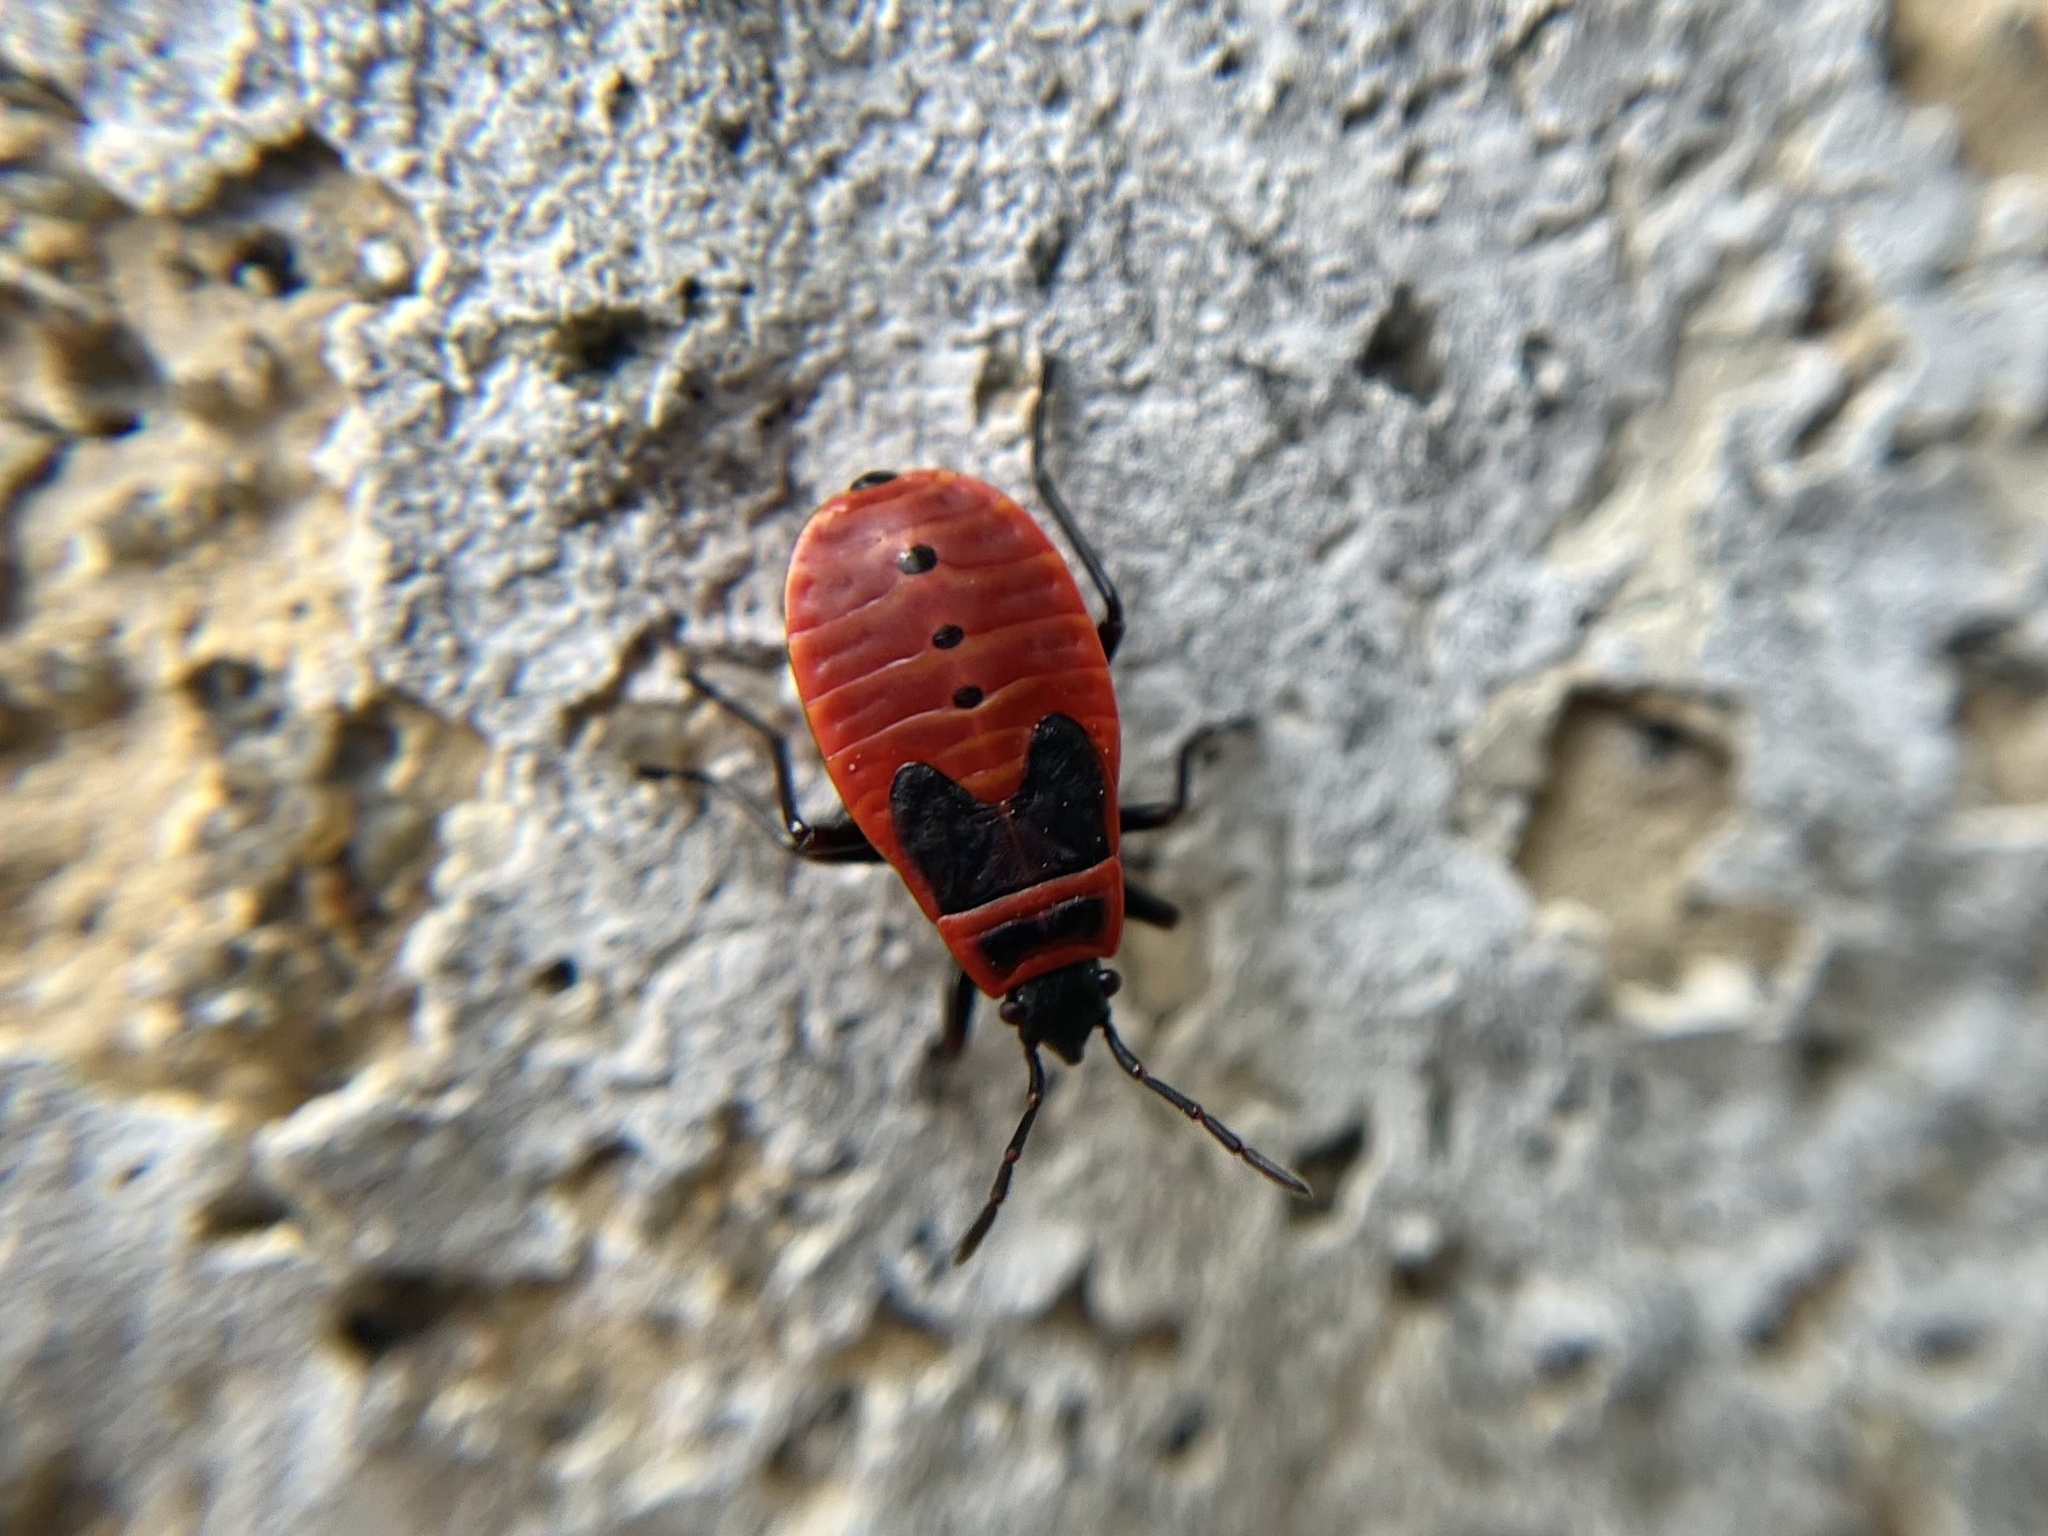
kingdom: Animalia
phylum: Arthropoda
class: Insecta
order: Hemiptera
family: Pyrrhocoridae
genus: Pyrrhocoris
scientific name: Pyrrhocoris apterus
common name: Firebug
